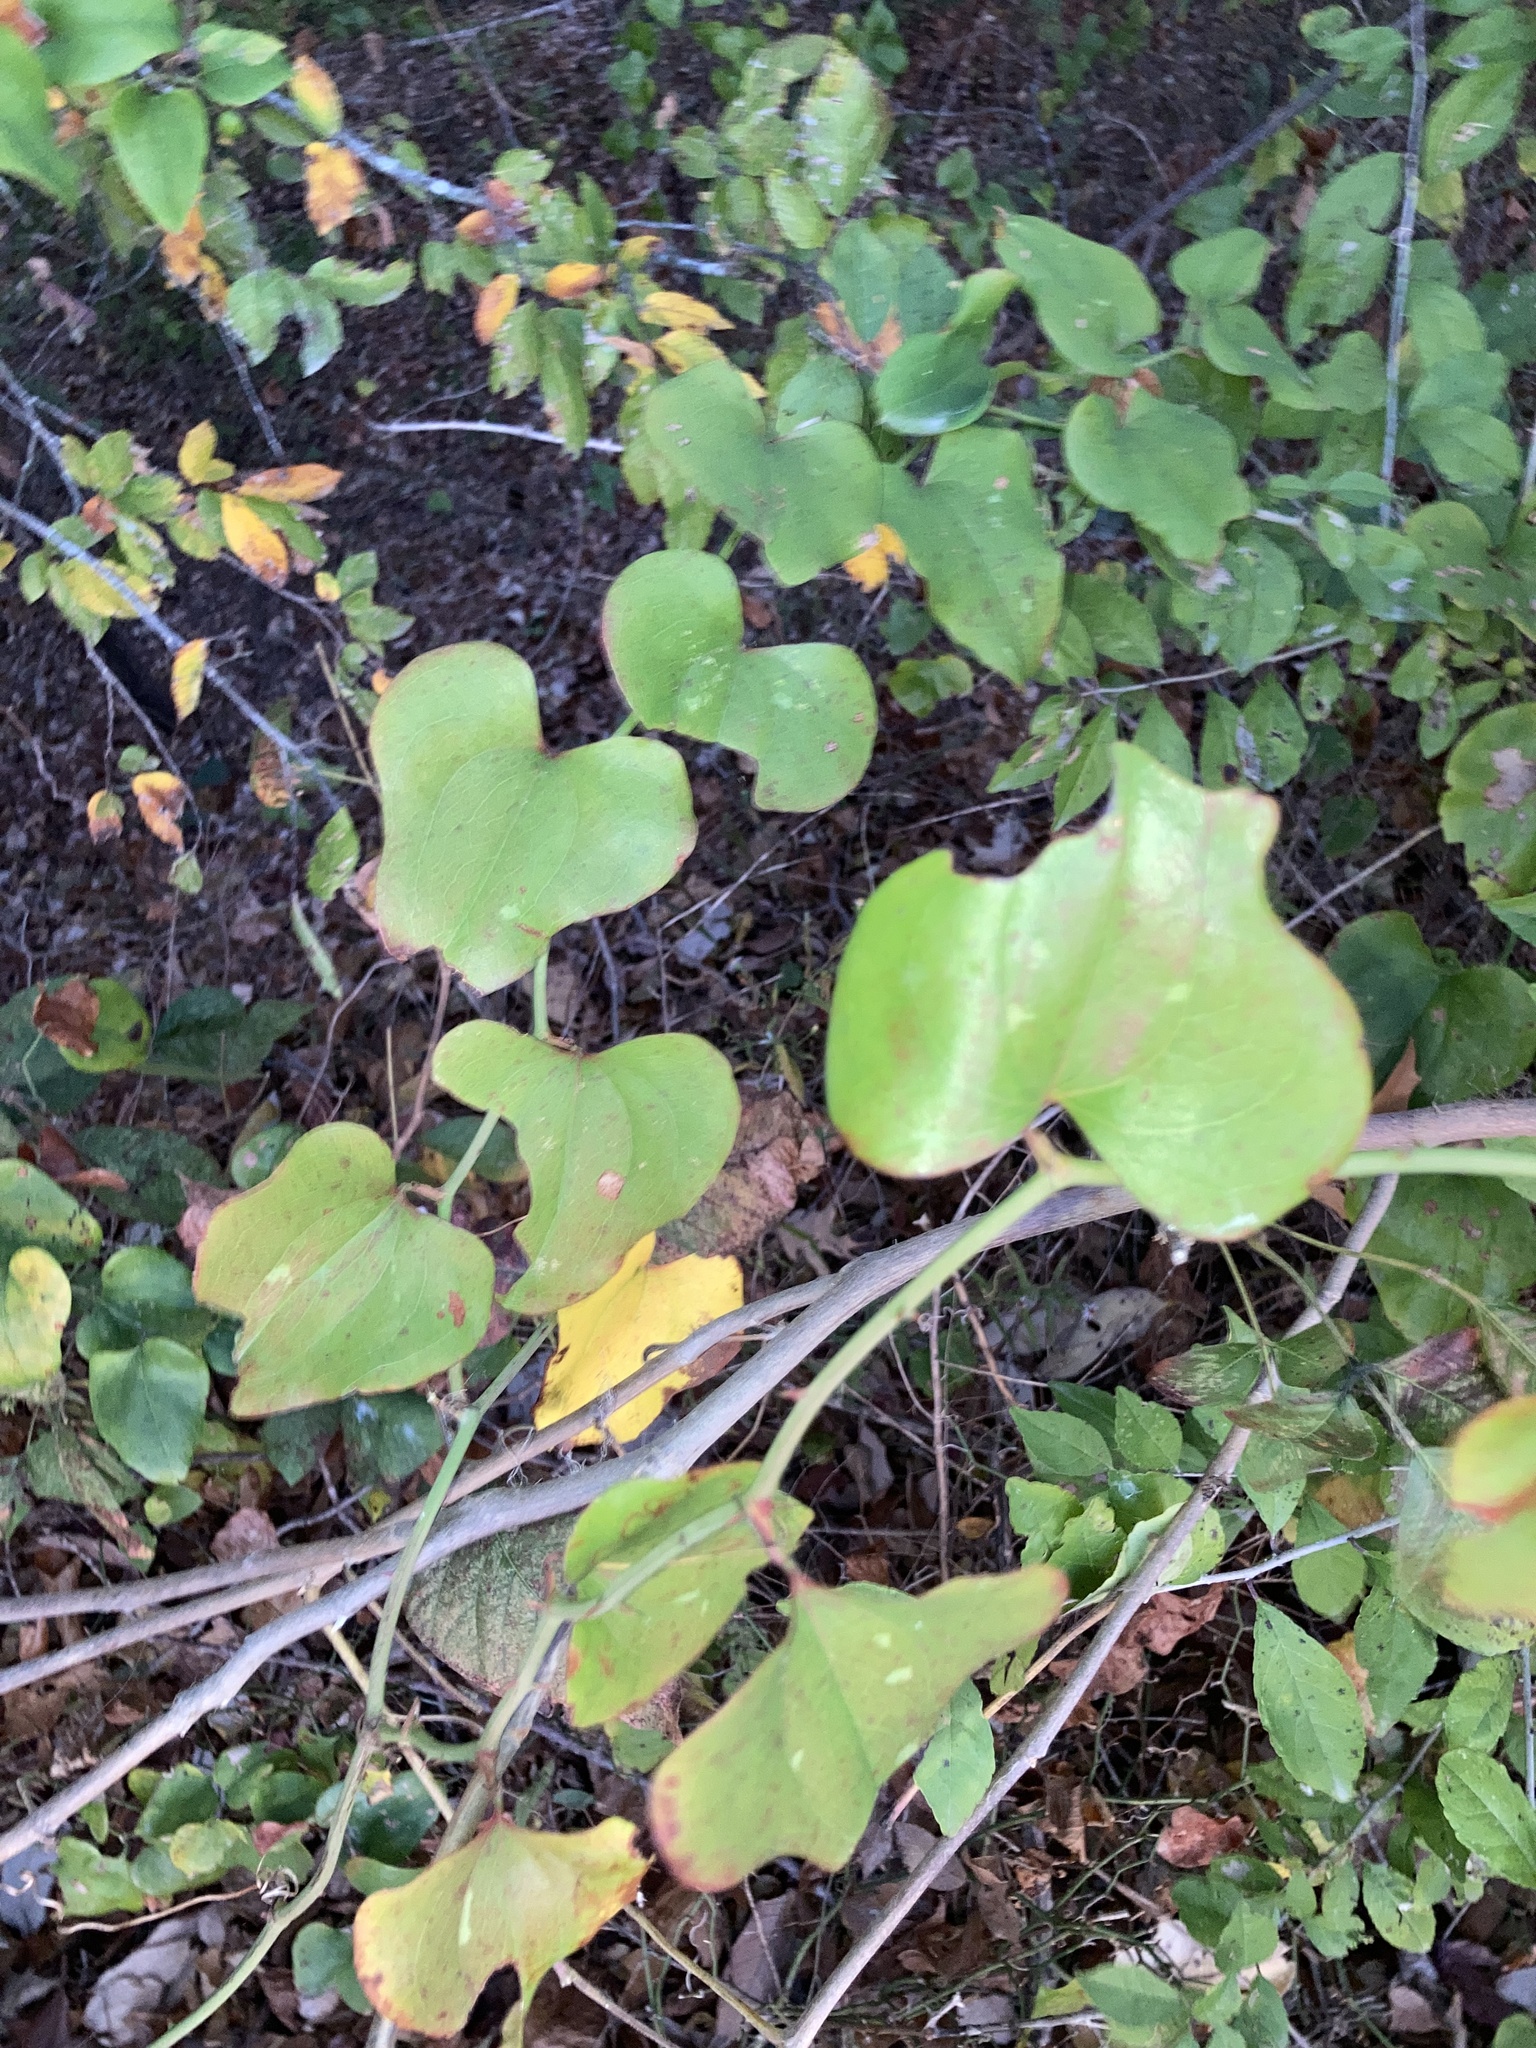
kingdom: Plantae
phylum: Tracheophyta
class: Liliopsida
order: Liliales
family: Smilacaceae
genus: Smilax
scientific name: Smilax bona-nox
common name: Catbrier
